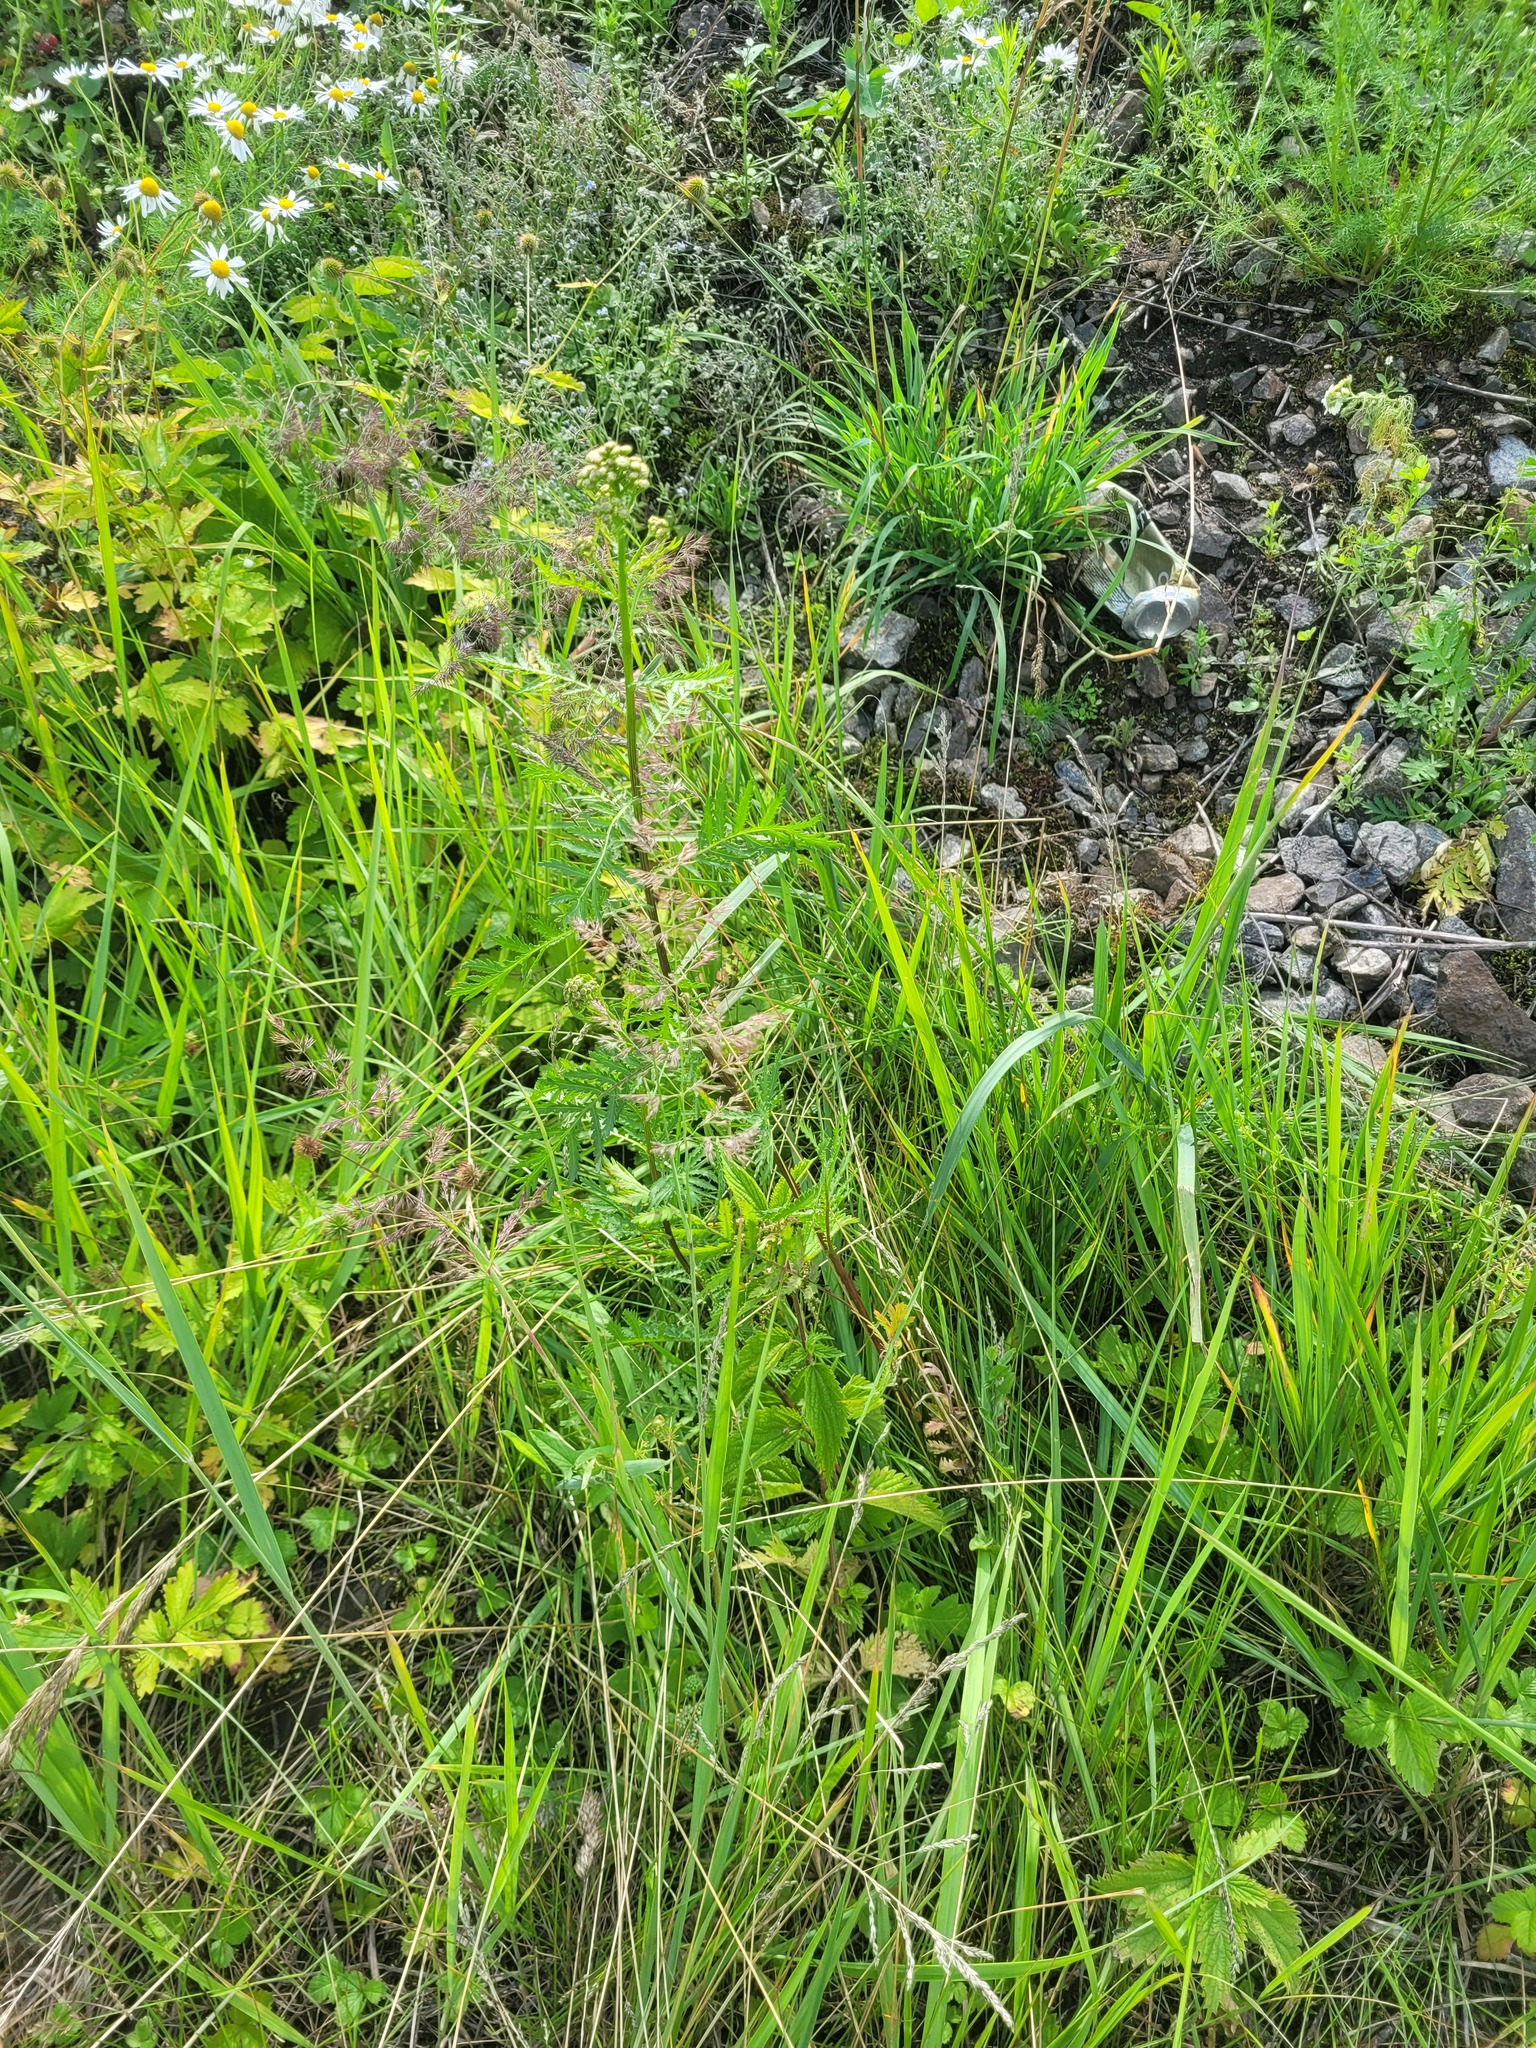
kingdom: Plantae
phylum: Tracheophyta
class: Liliopsida
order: Poales
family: Poaceae
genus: Calamagrostis
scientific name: Calamagrostis epigejos
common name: Wood small-reed
